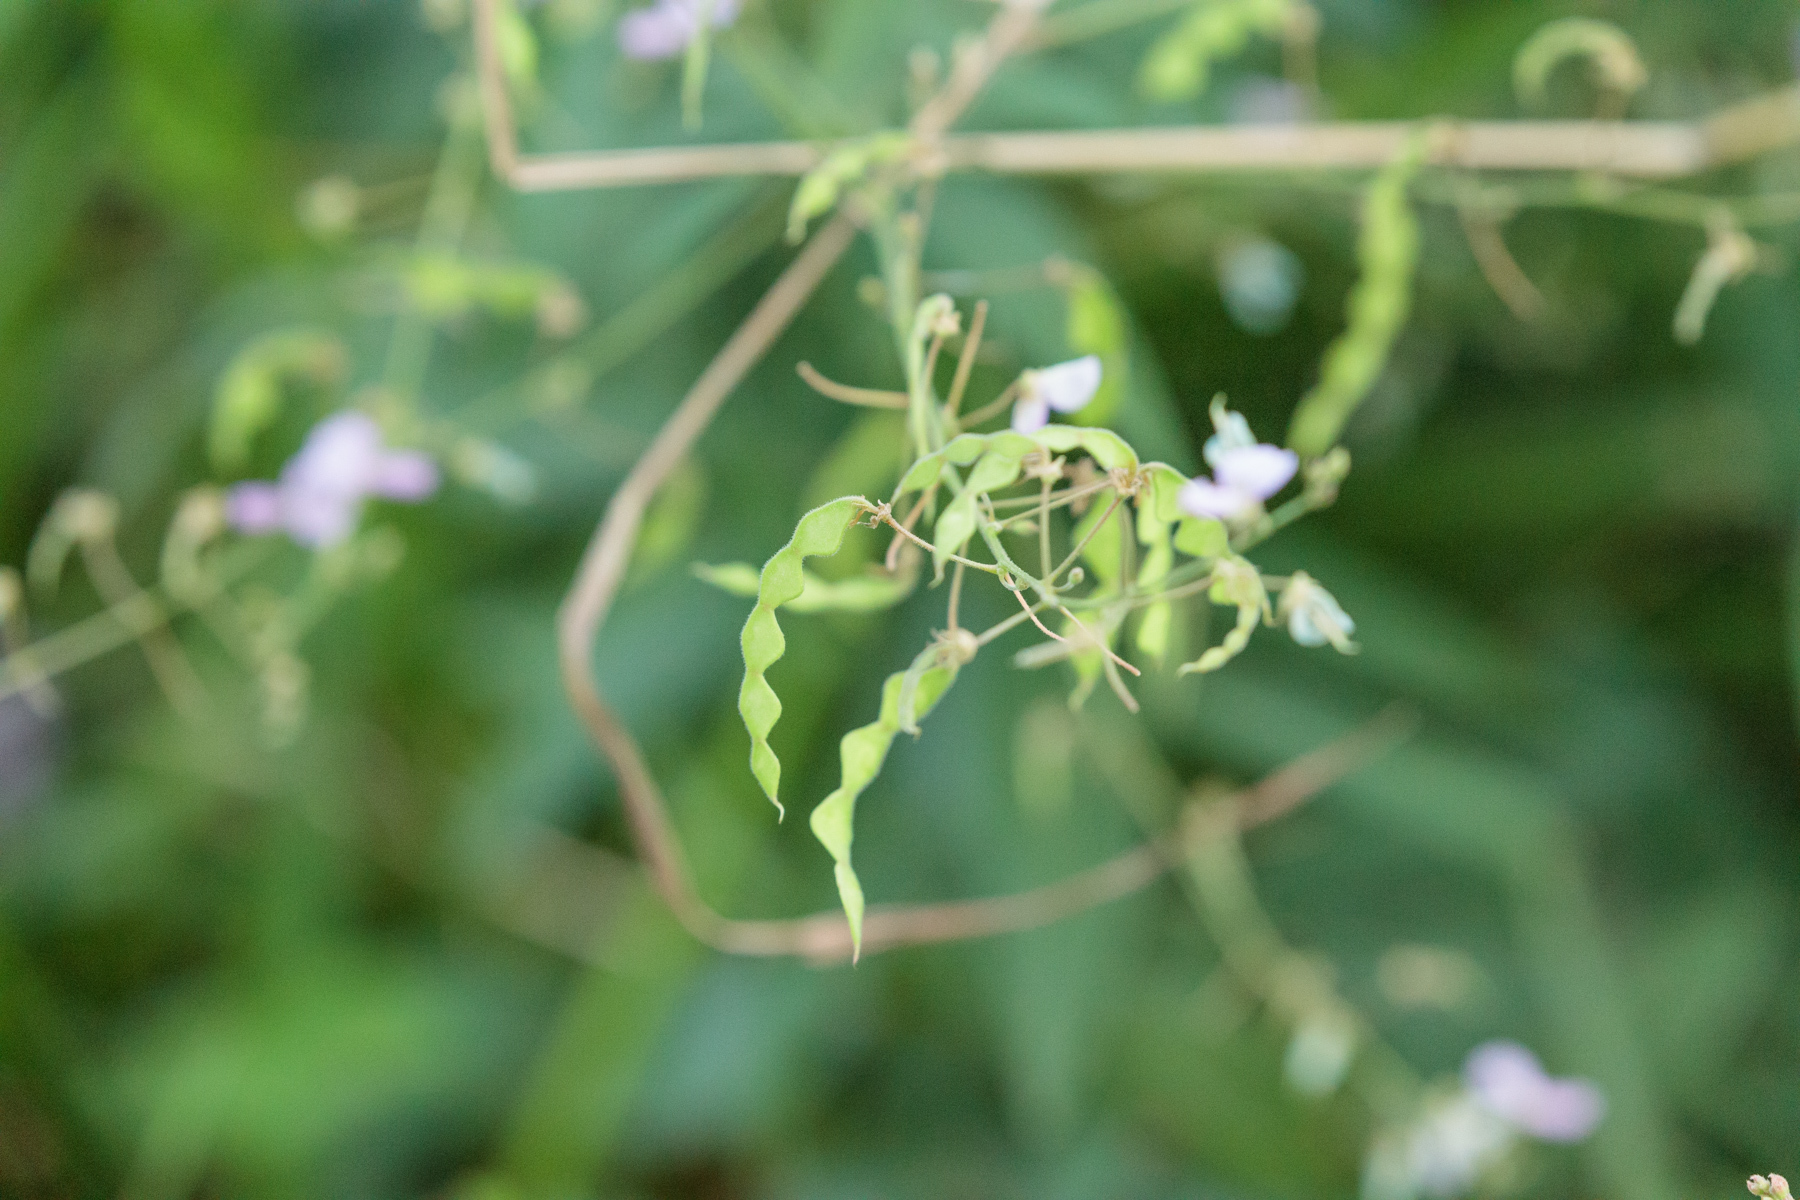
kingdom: Plantae
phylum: Tracheophyta
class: Magnoliopsida
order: Fabales
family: Fabaceae
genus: Desmodium
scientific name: Desmodium paniculatum
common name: Panicled tick-clover
